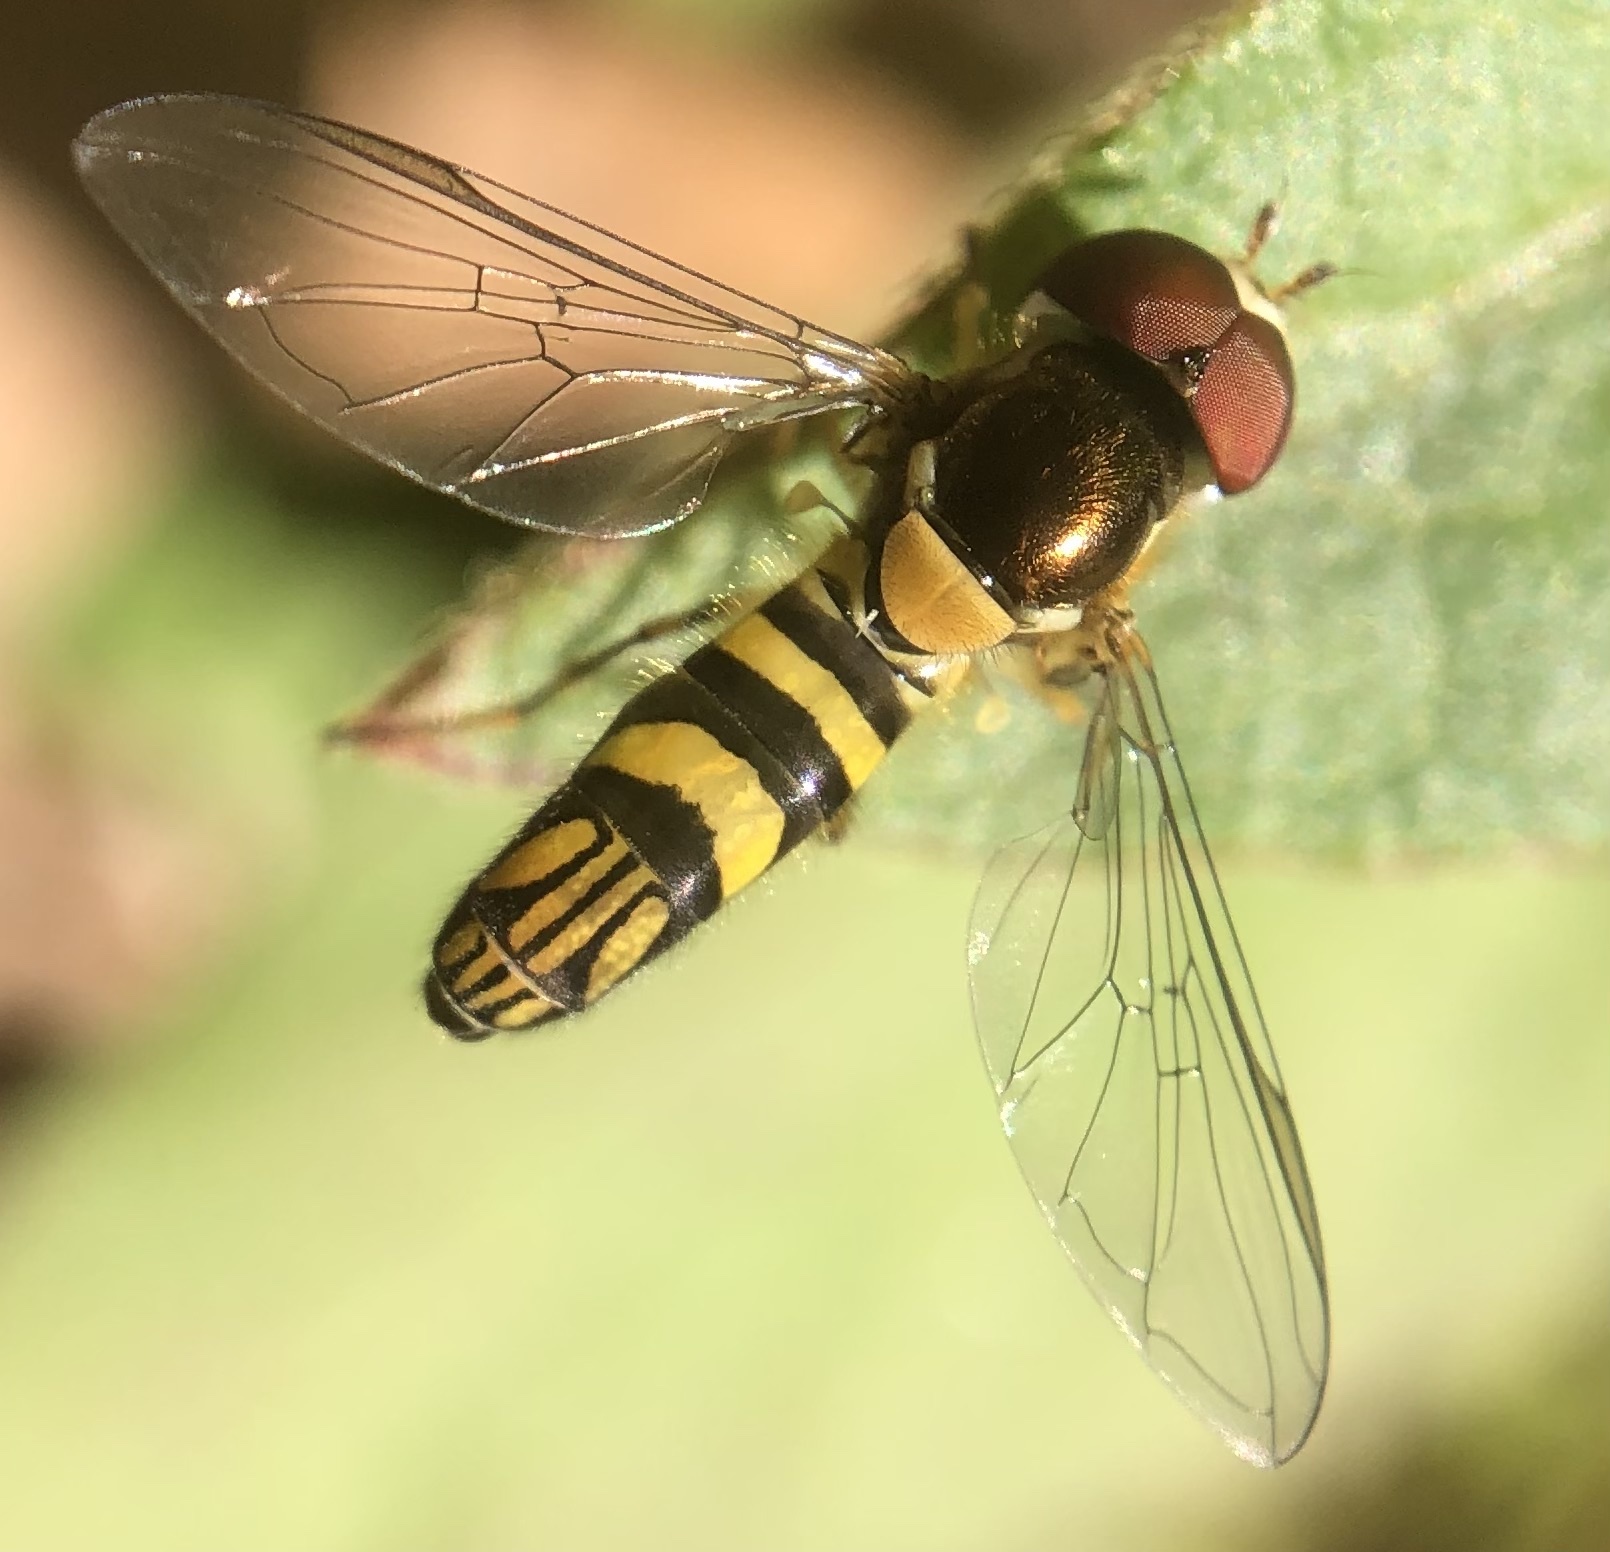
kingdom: Animalia
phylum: Arthropoda
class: Insecta
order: Diptera
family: Syrphidae
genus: Allograpta
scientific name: Allograpta obliqua
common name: Common oblique syrphid
